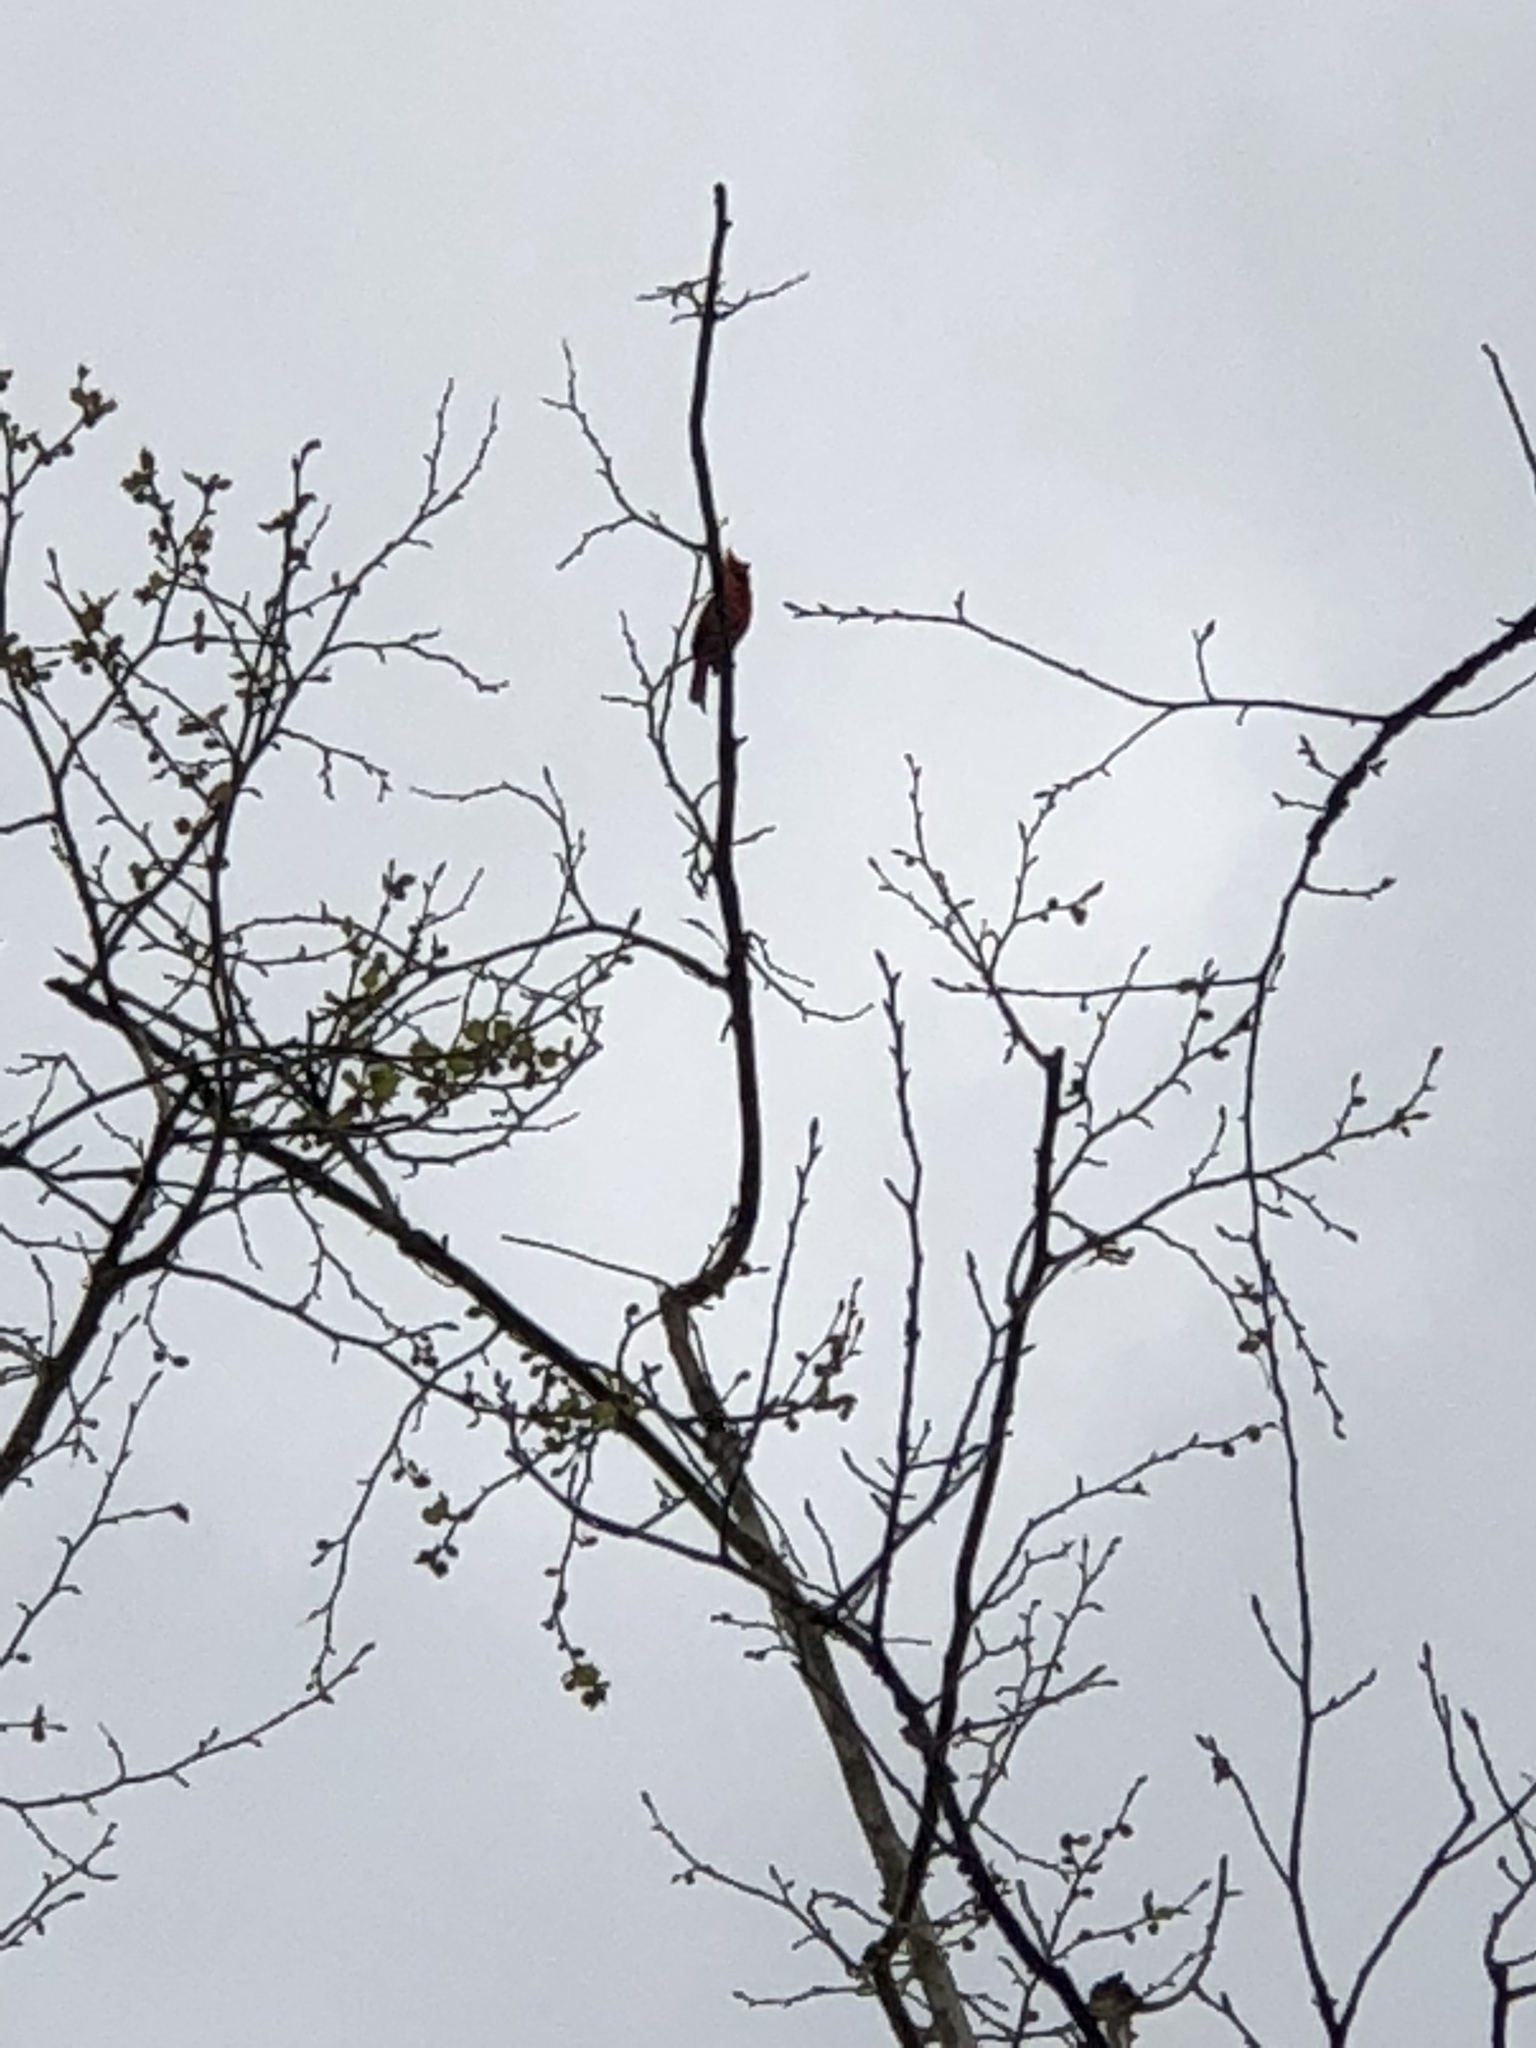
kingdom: Animalia
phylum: Chordata
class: Aves
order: Passeriformes
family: Cardinalidae
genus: Cardinalis
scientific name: Cardinalis cardinalis
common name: Northern cardinal
